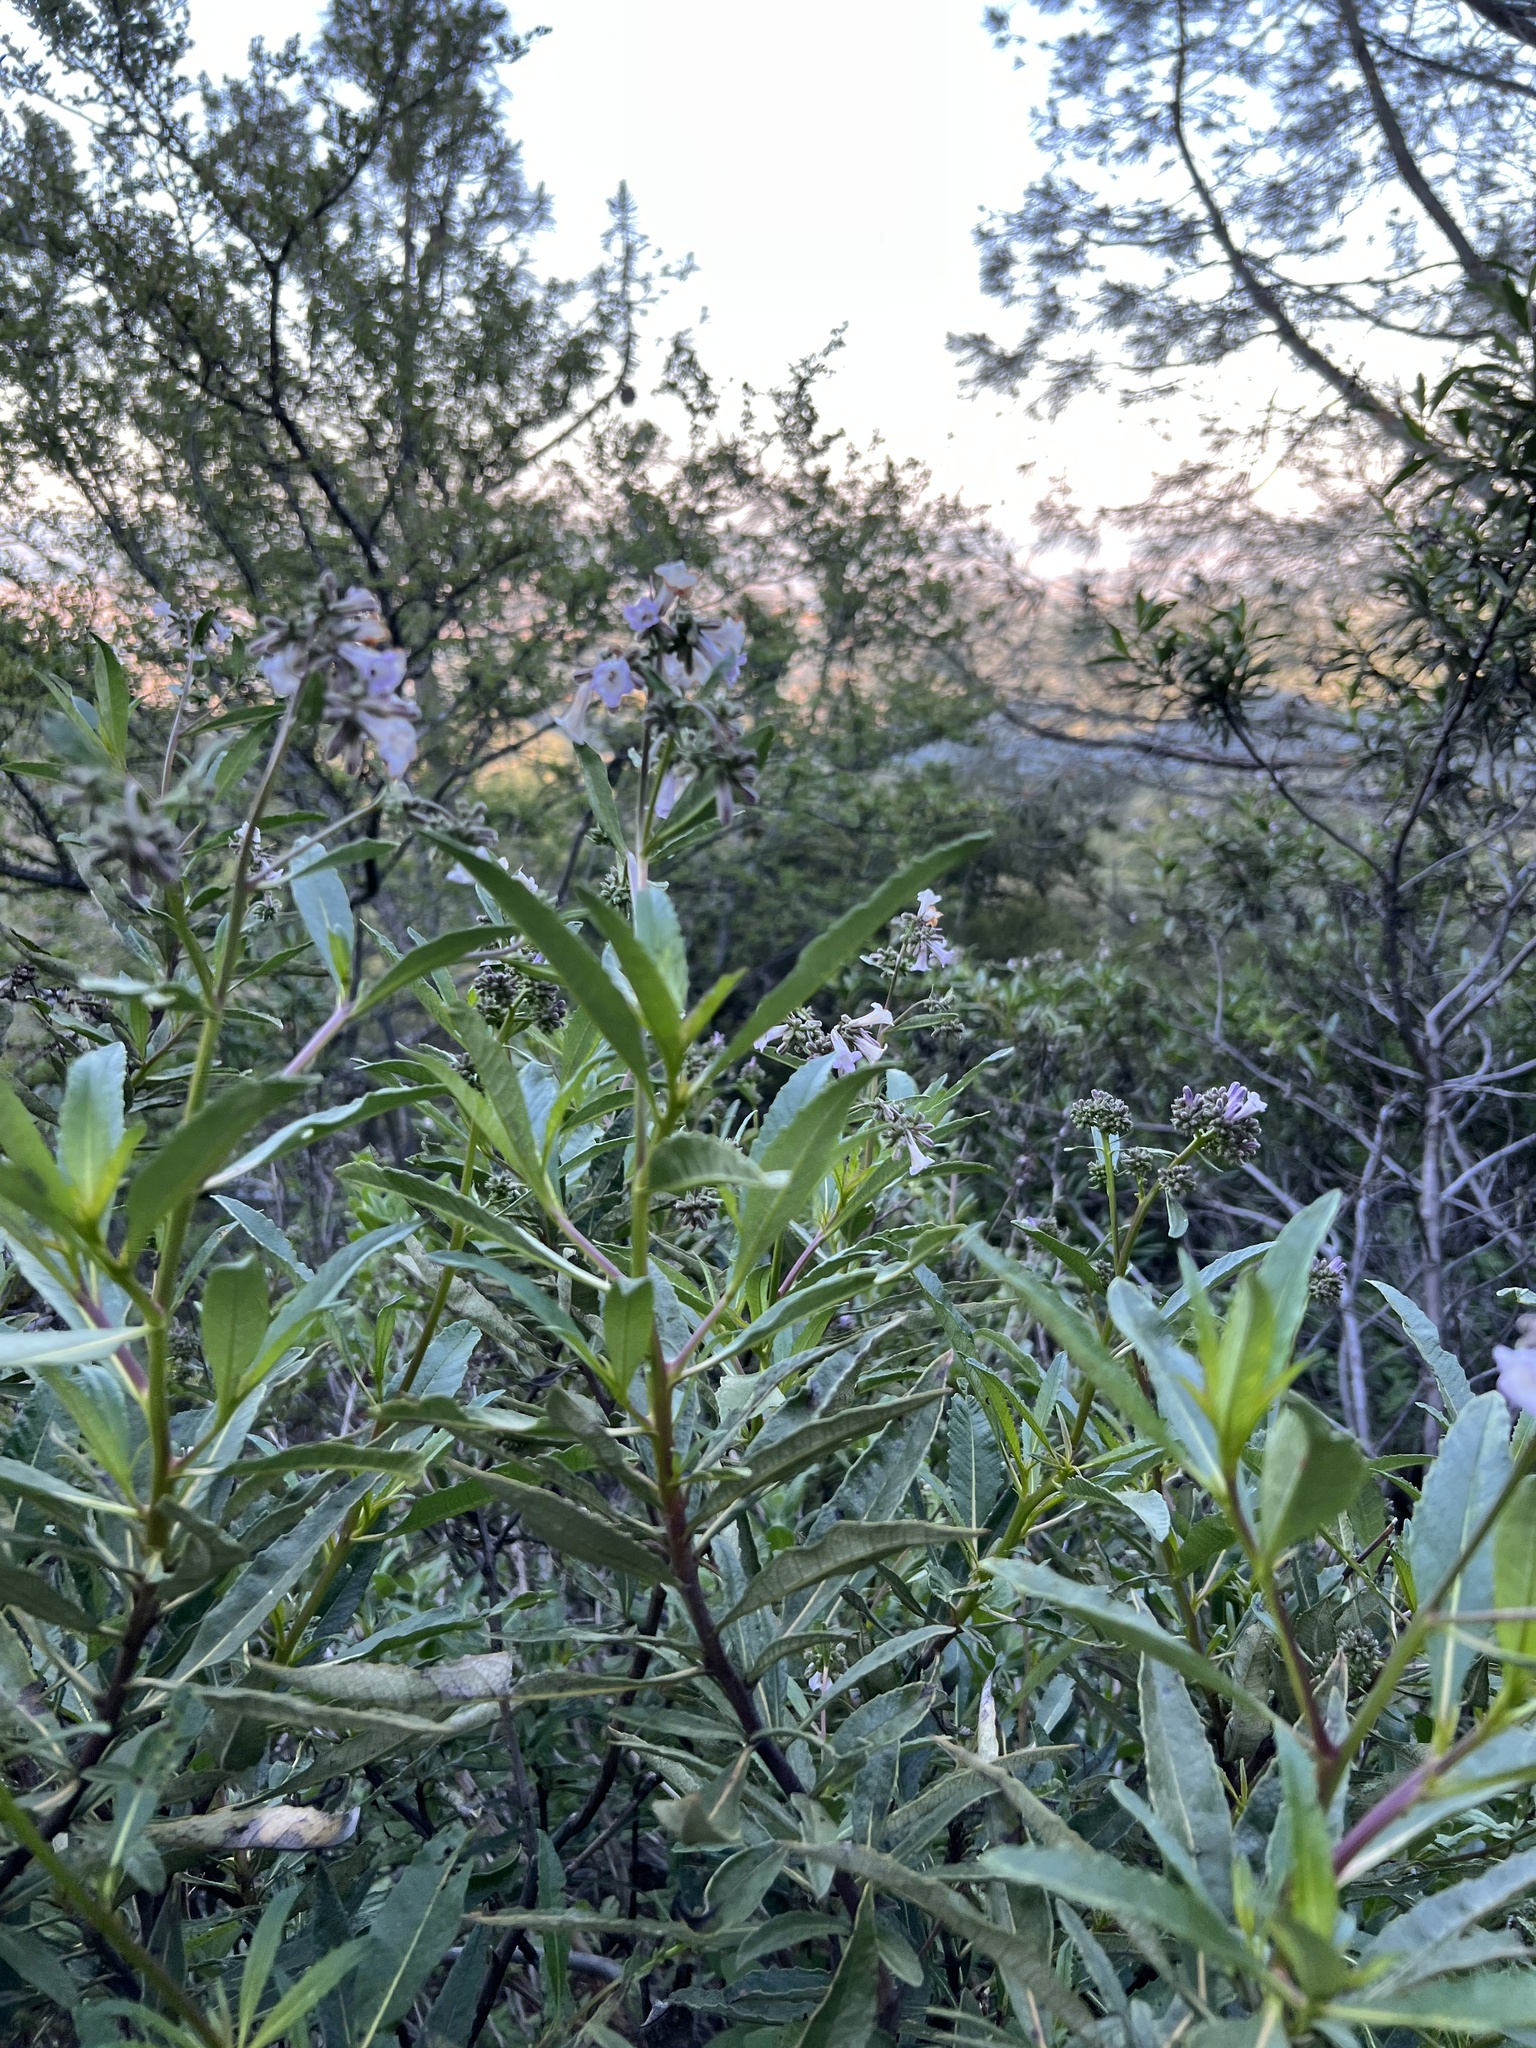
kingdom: Plantae
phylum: Tracheophyta
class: Magnoliopsida
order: Boraginales
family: Namaceae
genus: Eriodictyon
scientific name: Eriodictyon californicum
